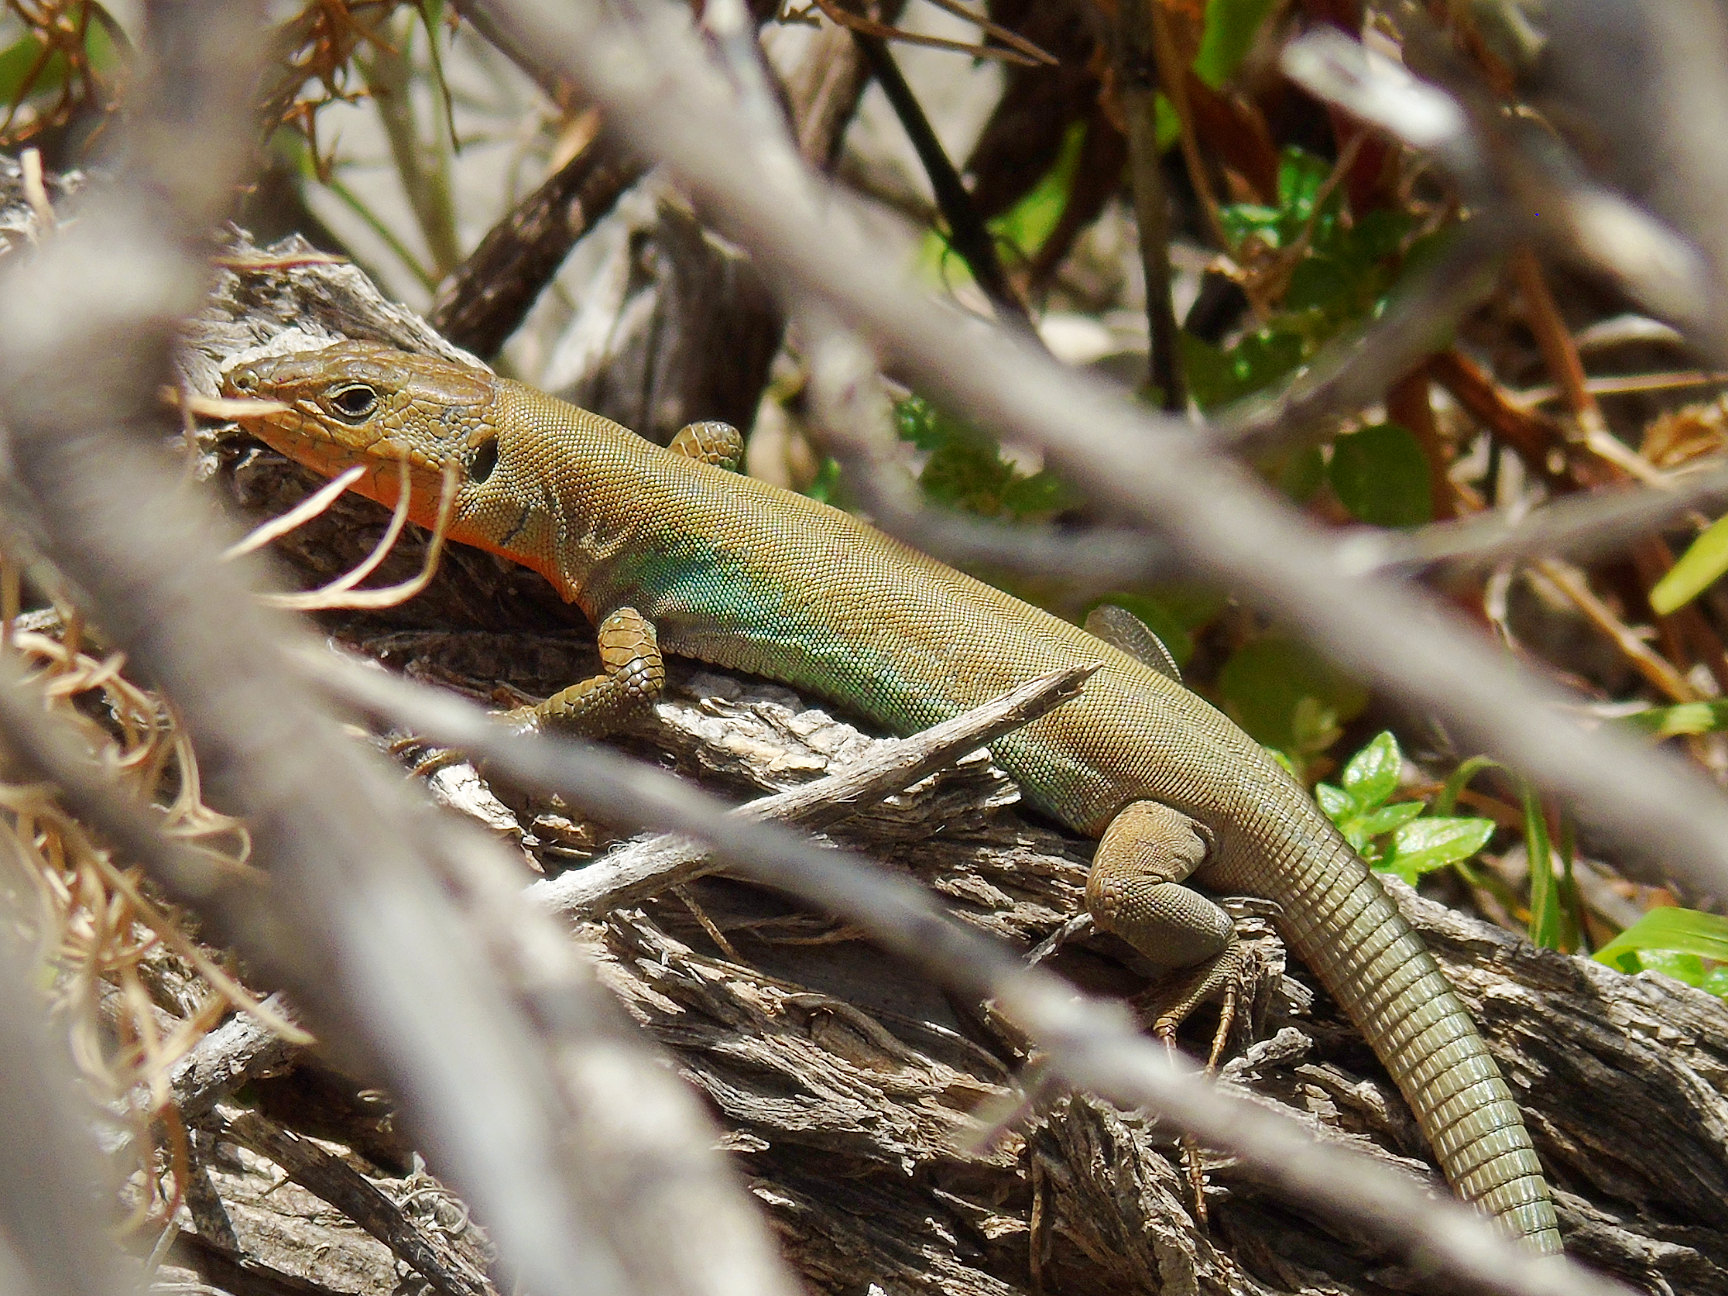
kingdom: Animalia
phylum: Chordata
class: Squamata
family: Lacertidae
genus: Podarcis
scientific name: Podarcis peloponnesiacus
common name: Peloponnese wall lizard
